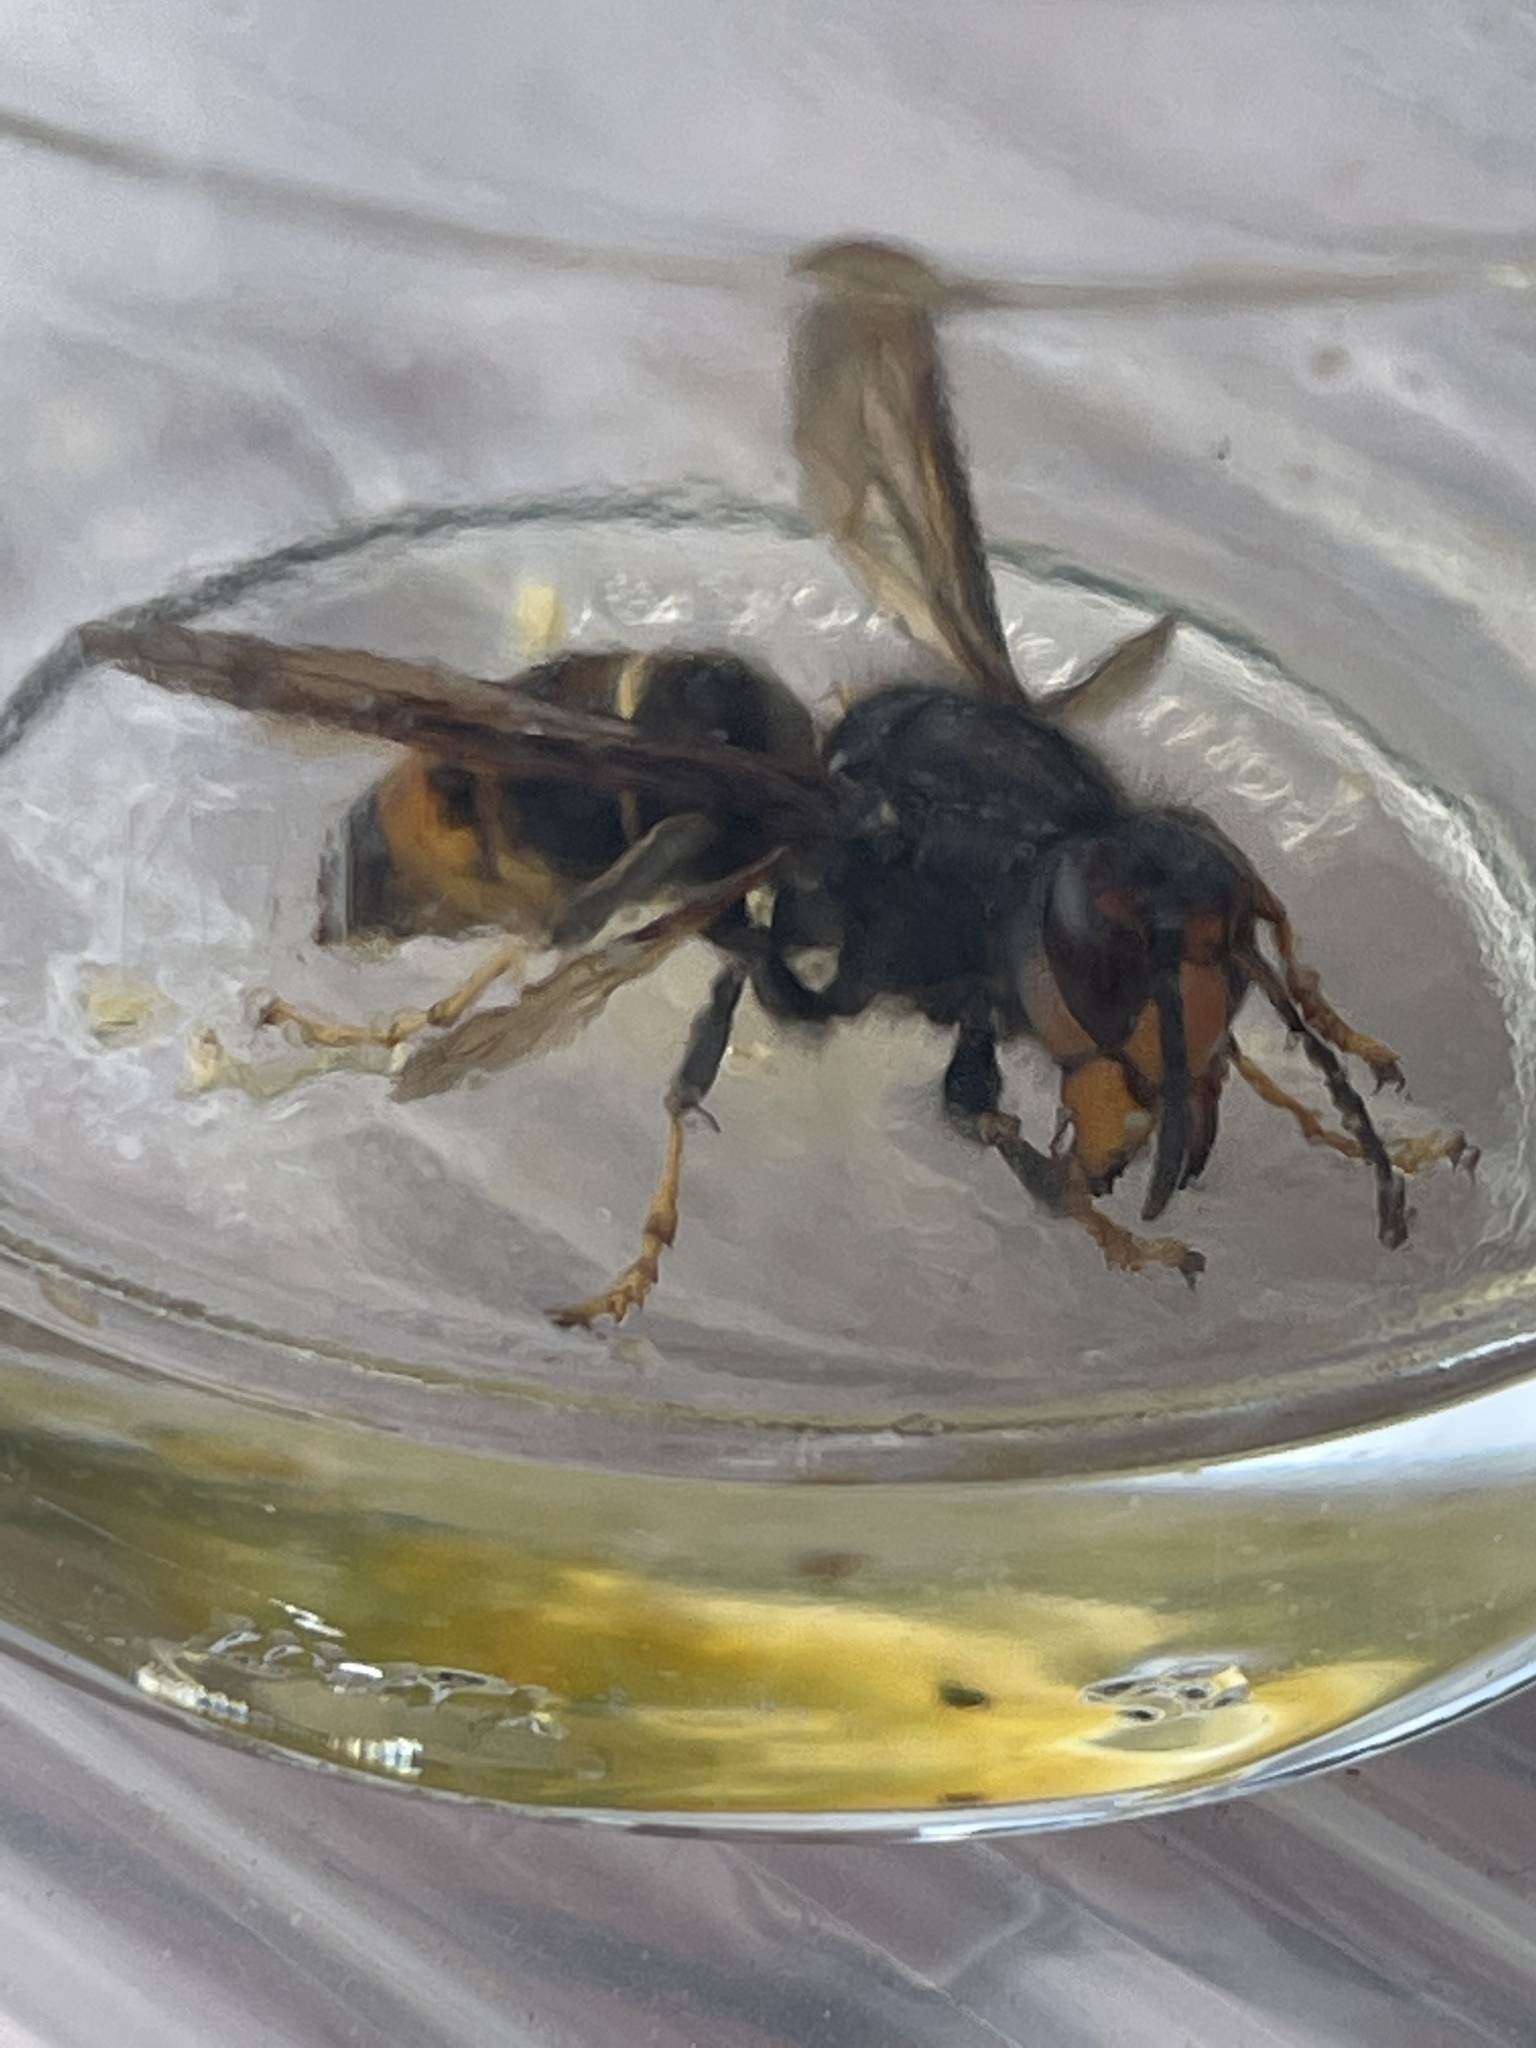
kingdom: Animalia
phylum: Arthropoda
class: Insecta
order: Hymenoptera
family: Vespidae
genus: Vespa
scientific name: Vespa velutina
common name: Asian hornet
